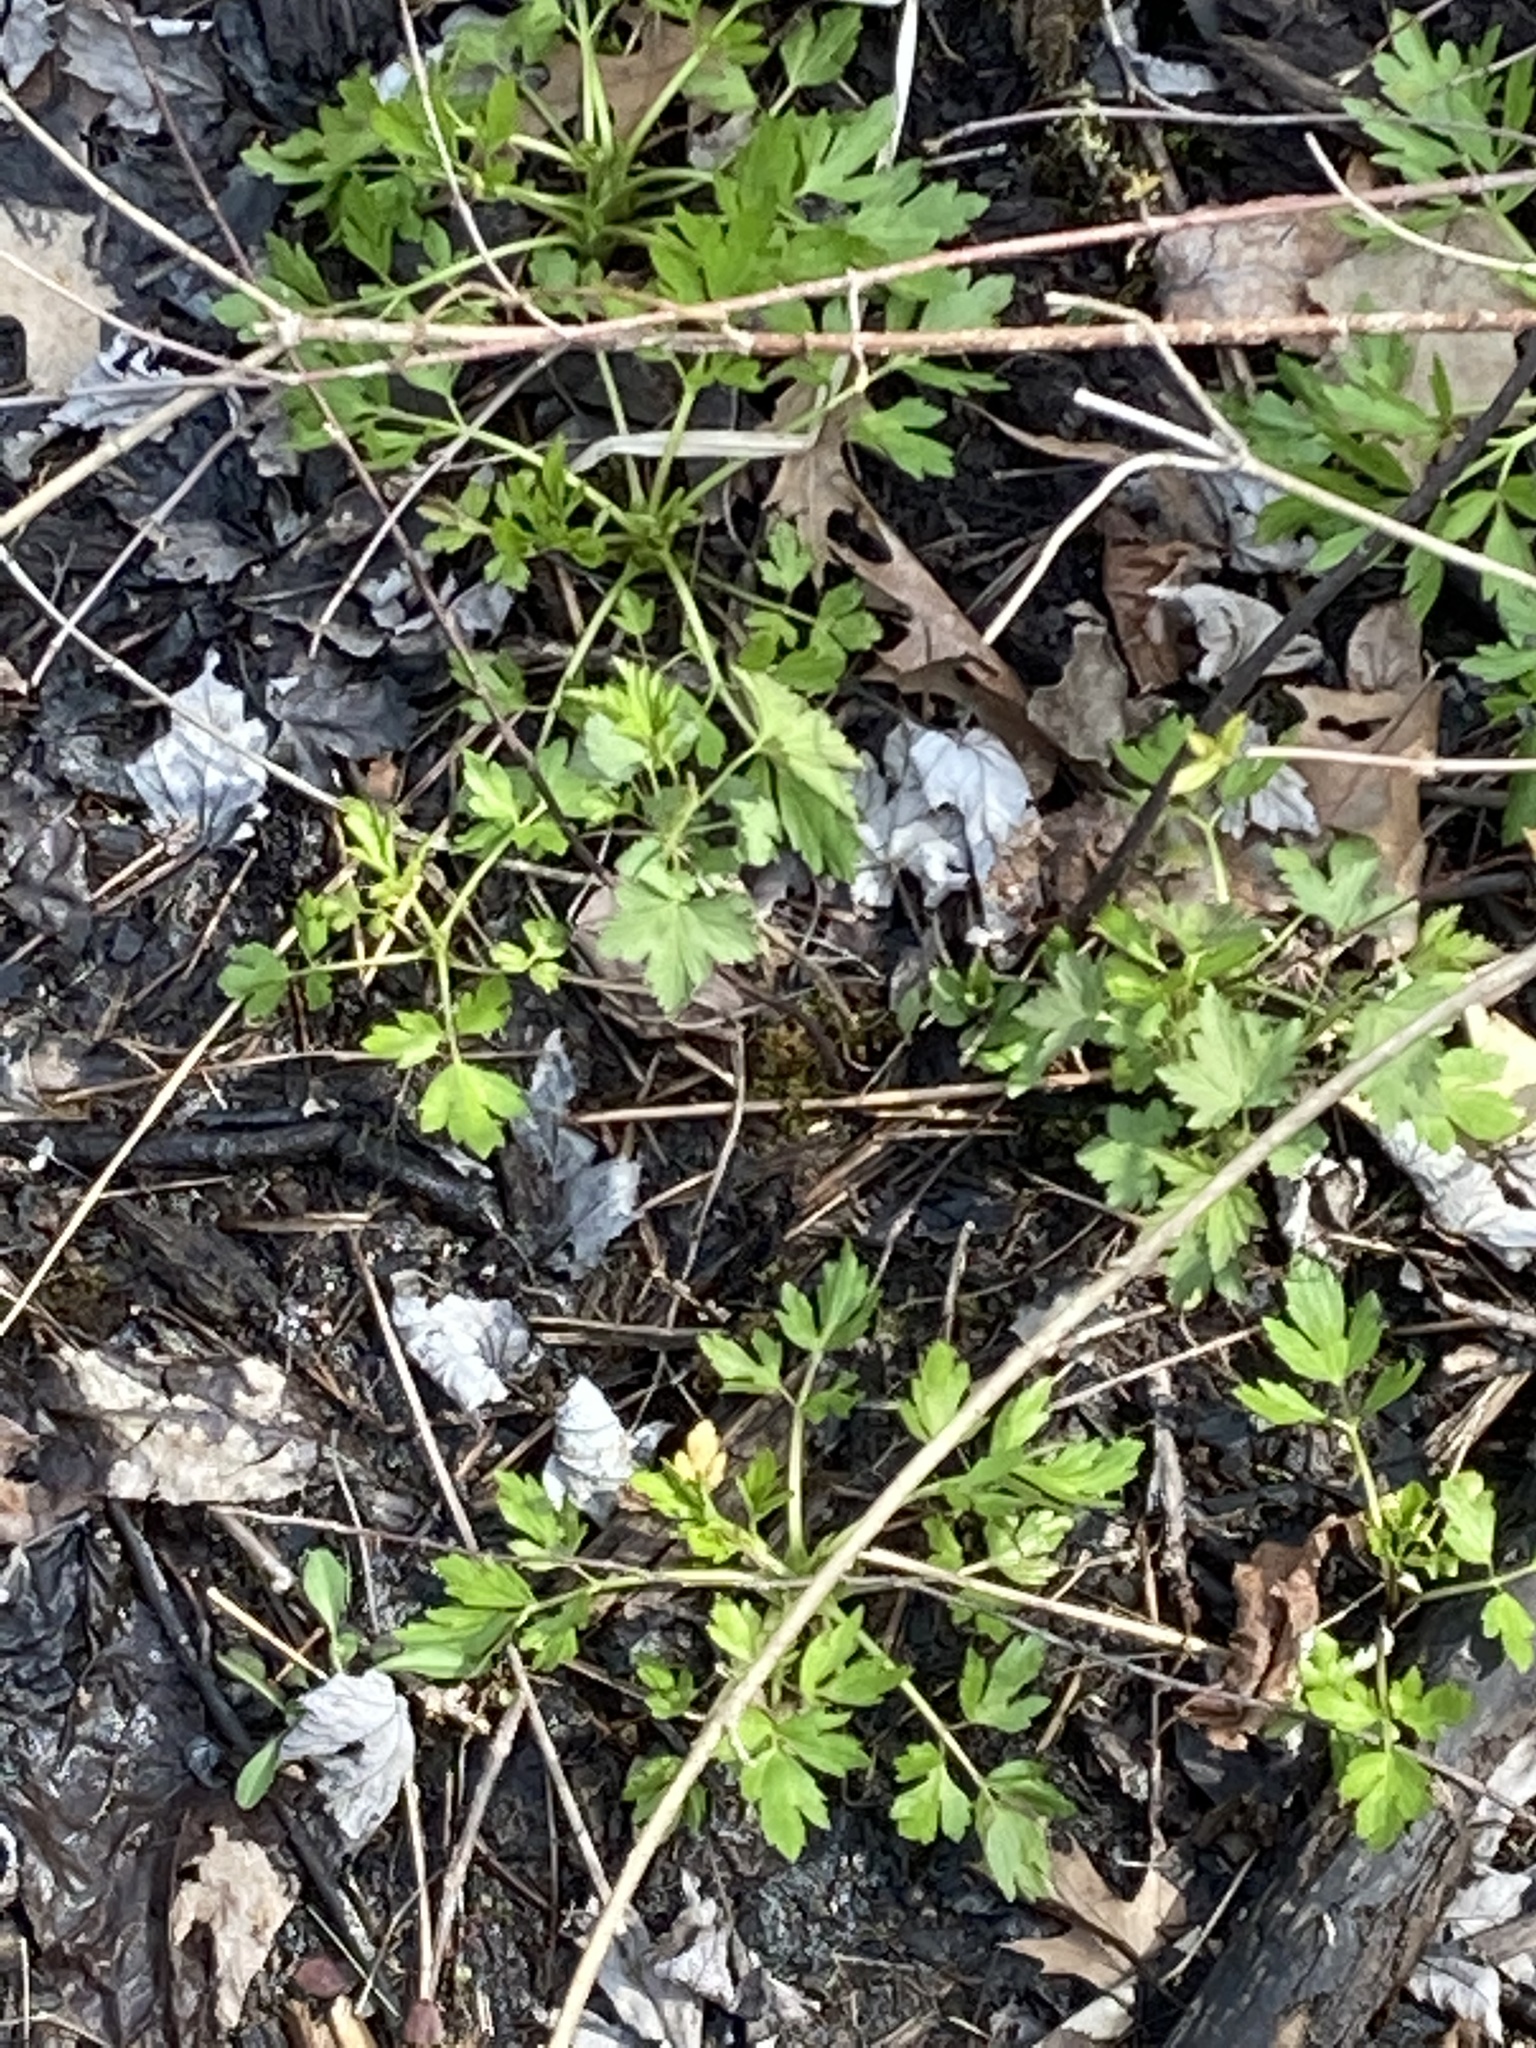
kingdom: Plantae
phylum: Tracheophyta
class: Magnoliopsida
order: Ranunculales
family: Ranunculaceae
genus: Ranunculus
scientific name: Ranunculus hispidus
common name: Bristly buttercup
